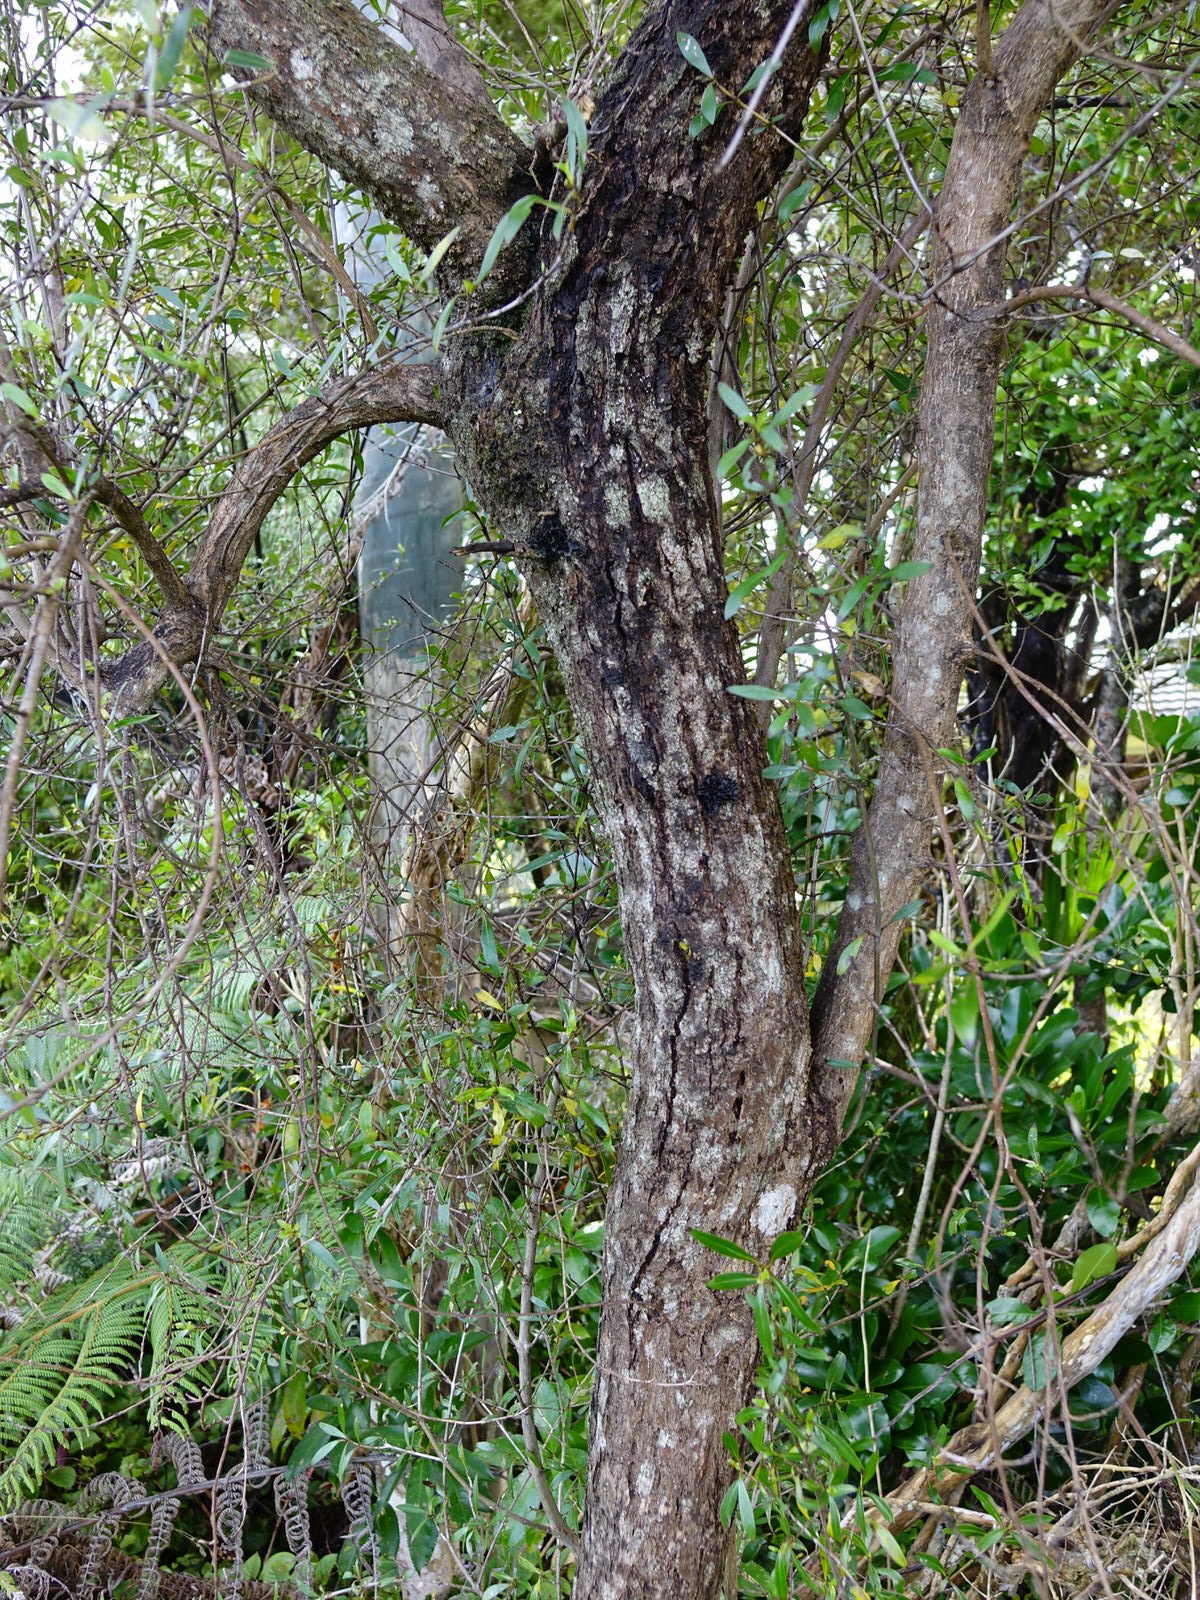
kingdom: Plantae
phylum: Tracheophyta
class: Magnoliopsida
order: Gentianales
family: Rubiaceae
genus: Coprosma
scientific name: Coprosma cunninghamii
